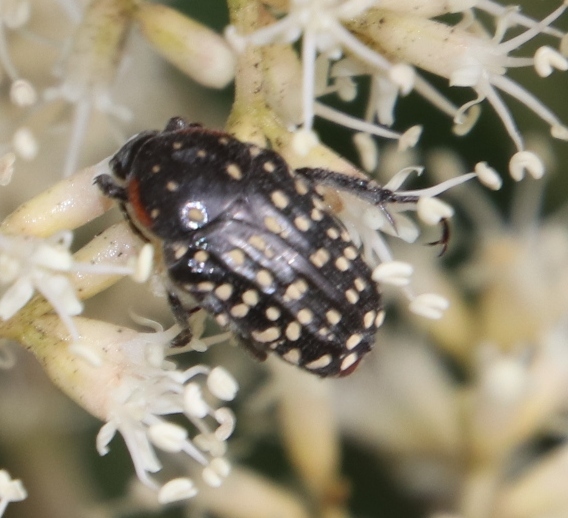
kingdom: Animalia
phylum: Arthropoda
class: Insecta
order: Coleoptera
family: Scarabaeidae
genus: Oxythyrea
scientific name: Oxythyrea
